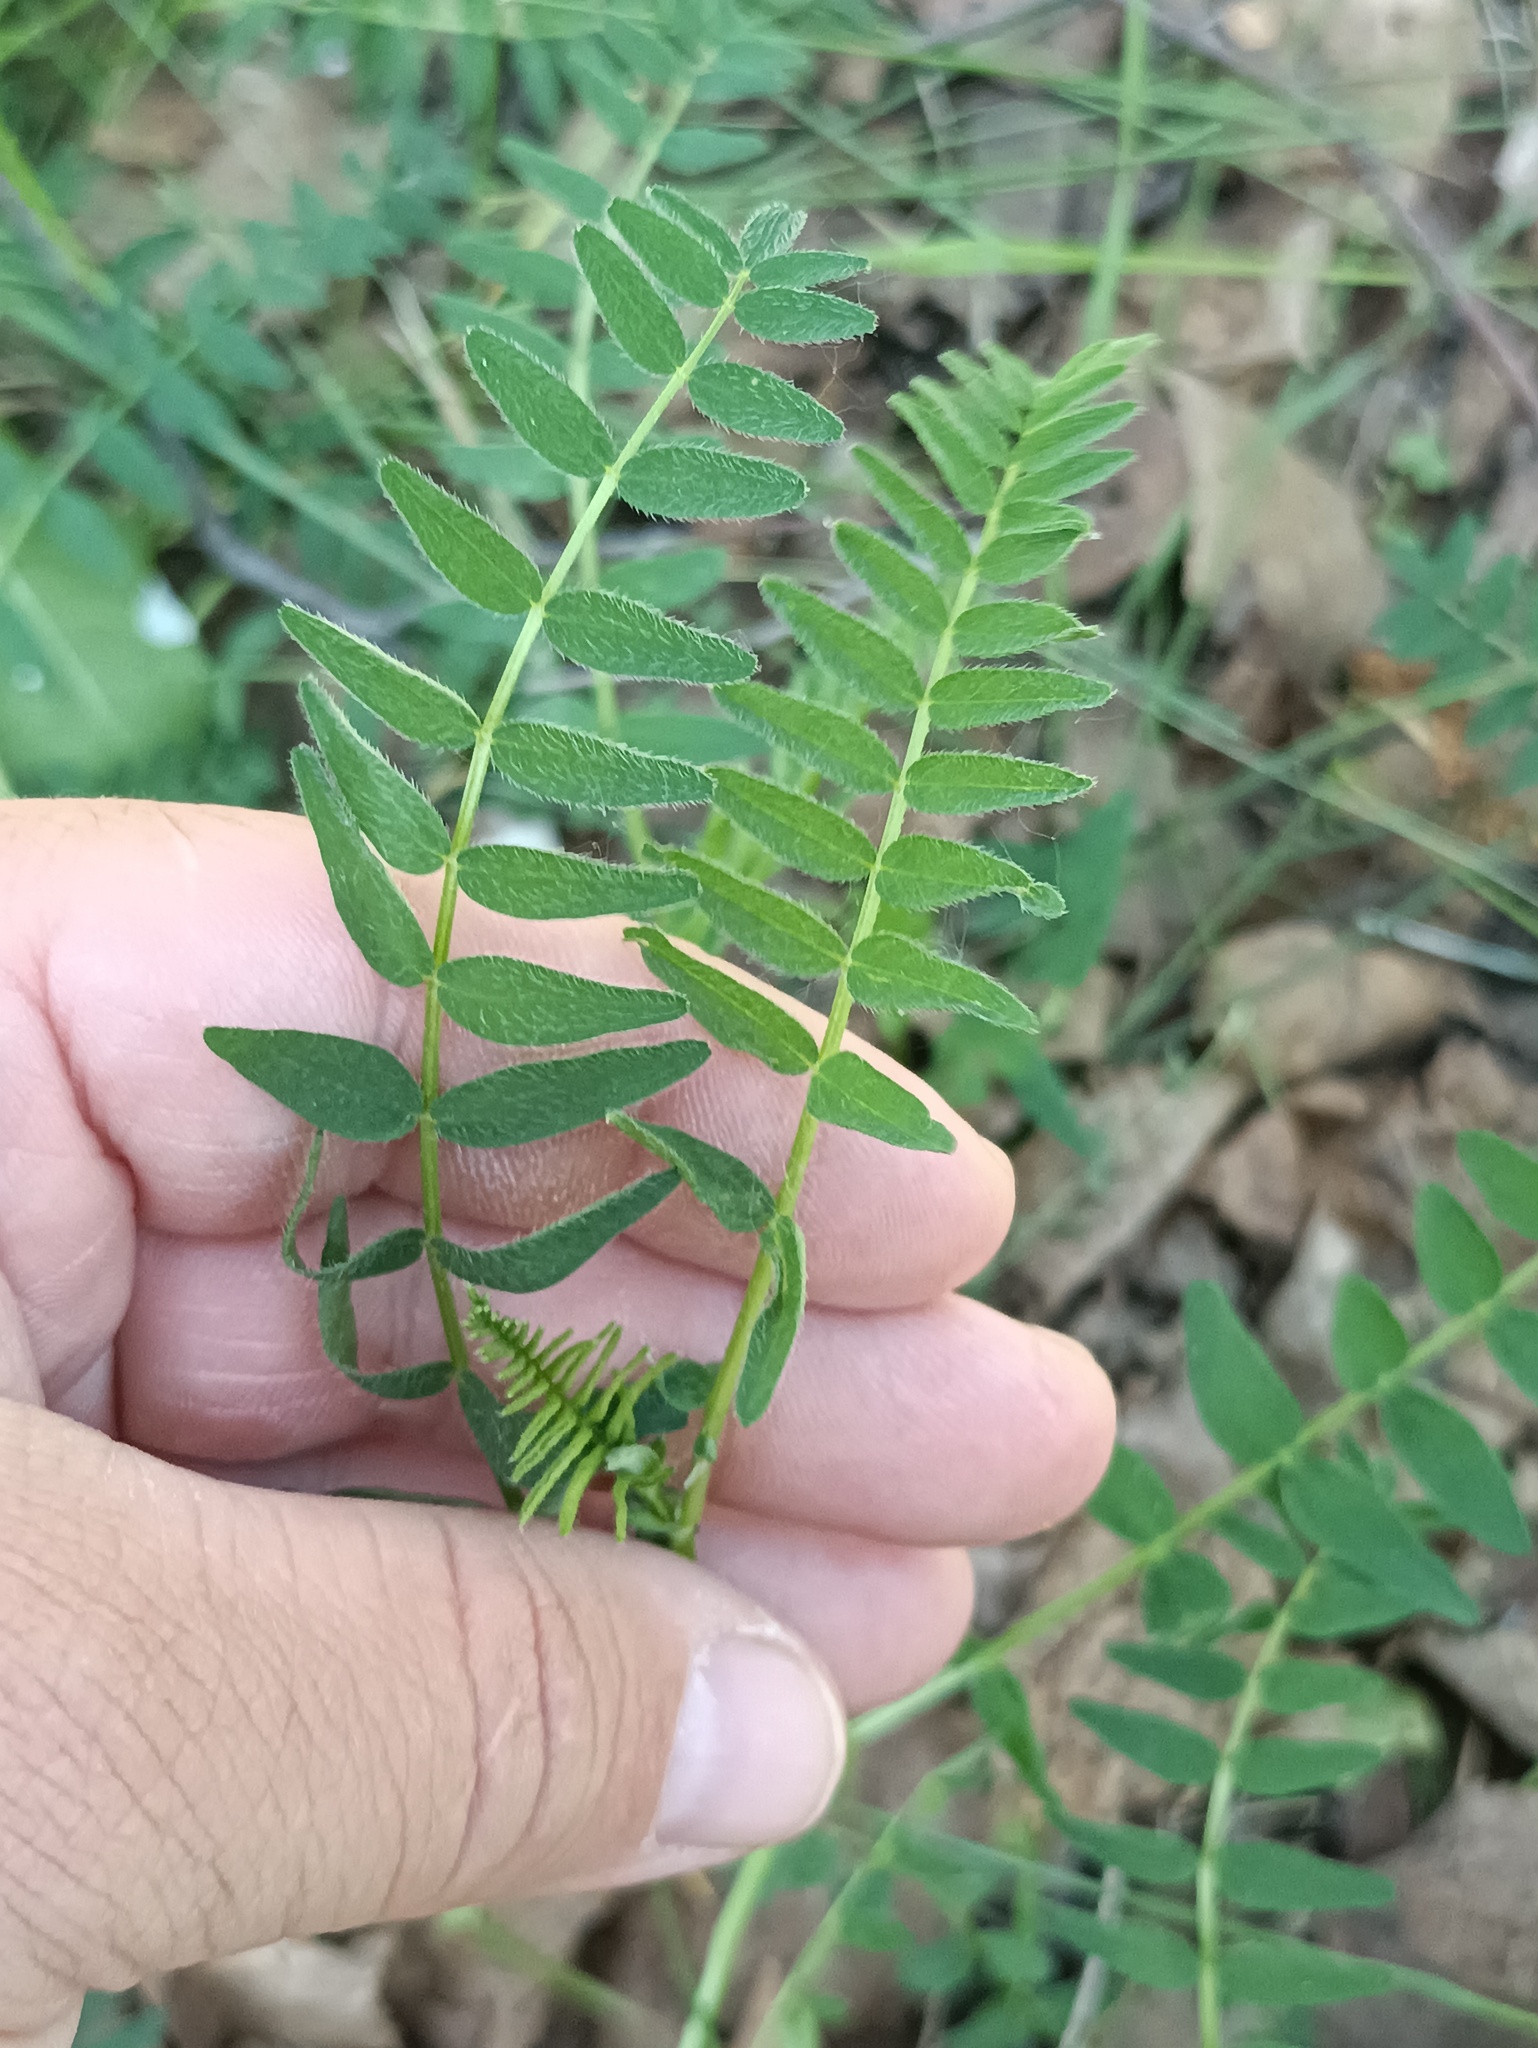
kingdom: Plantae
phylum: Tracheophyta
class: Magnoliopsida
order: Fabales
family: Fabaceae
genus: Astragalus
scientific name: Astragalus danicus
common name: Purple milk-vetch
